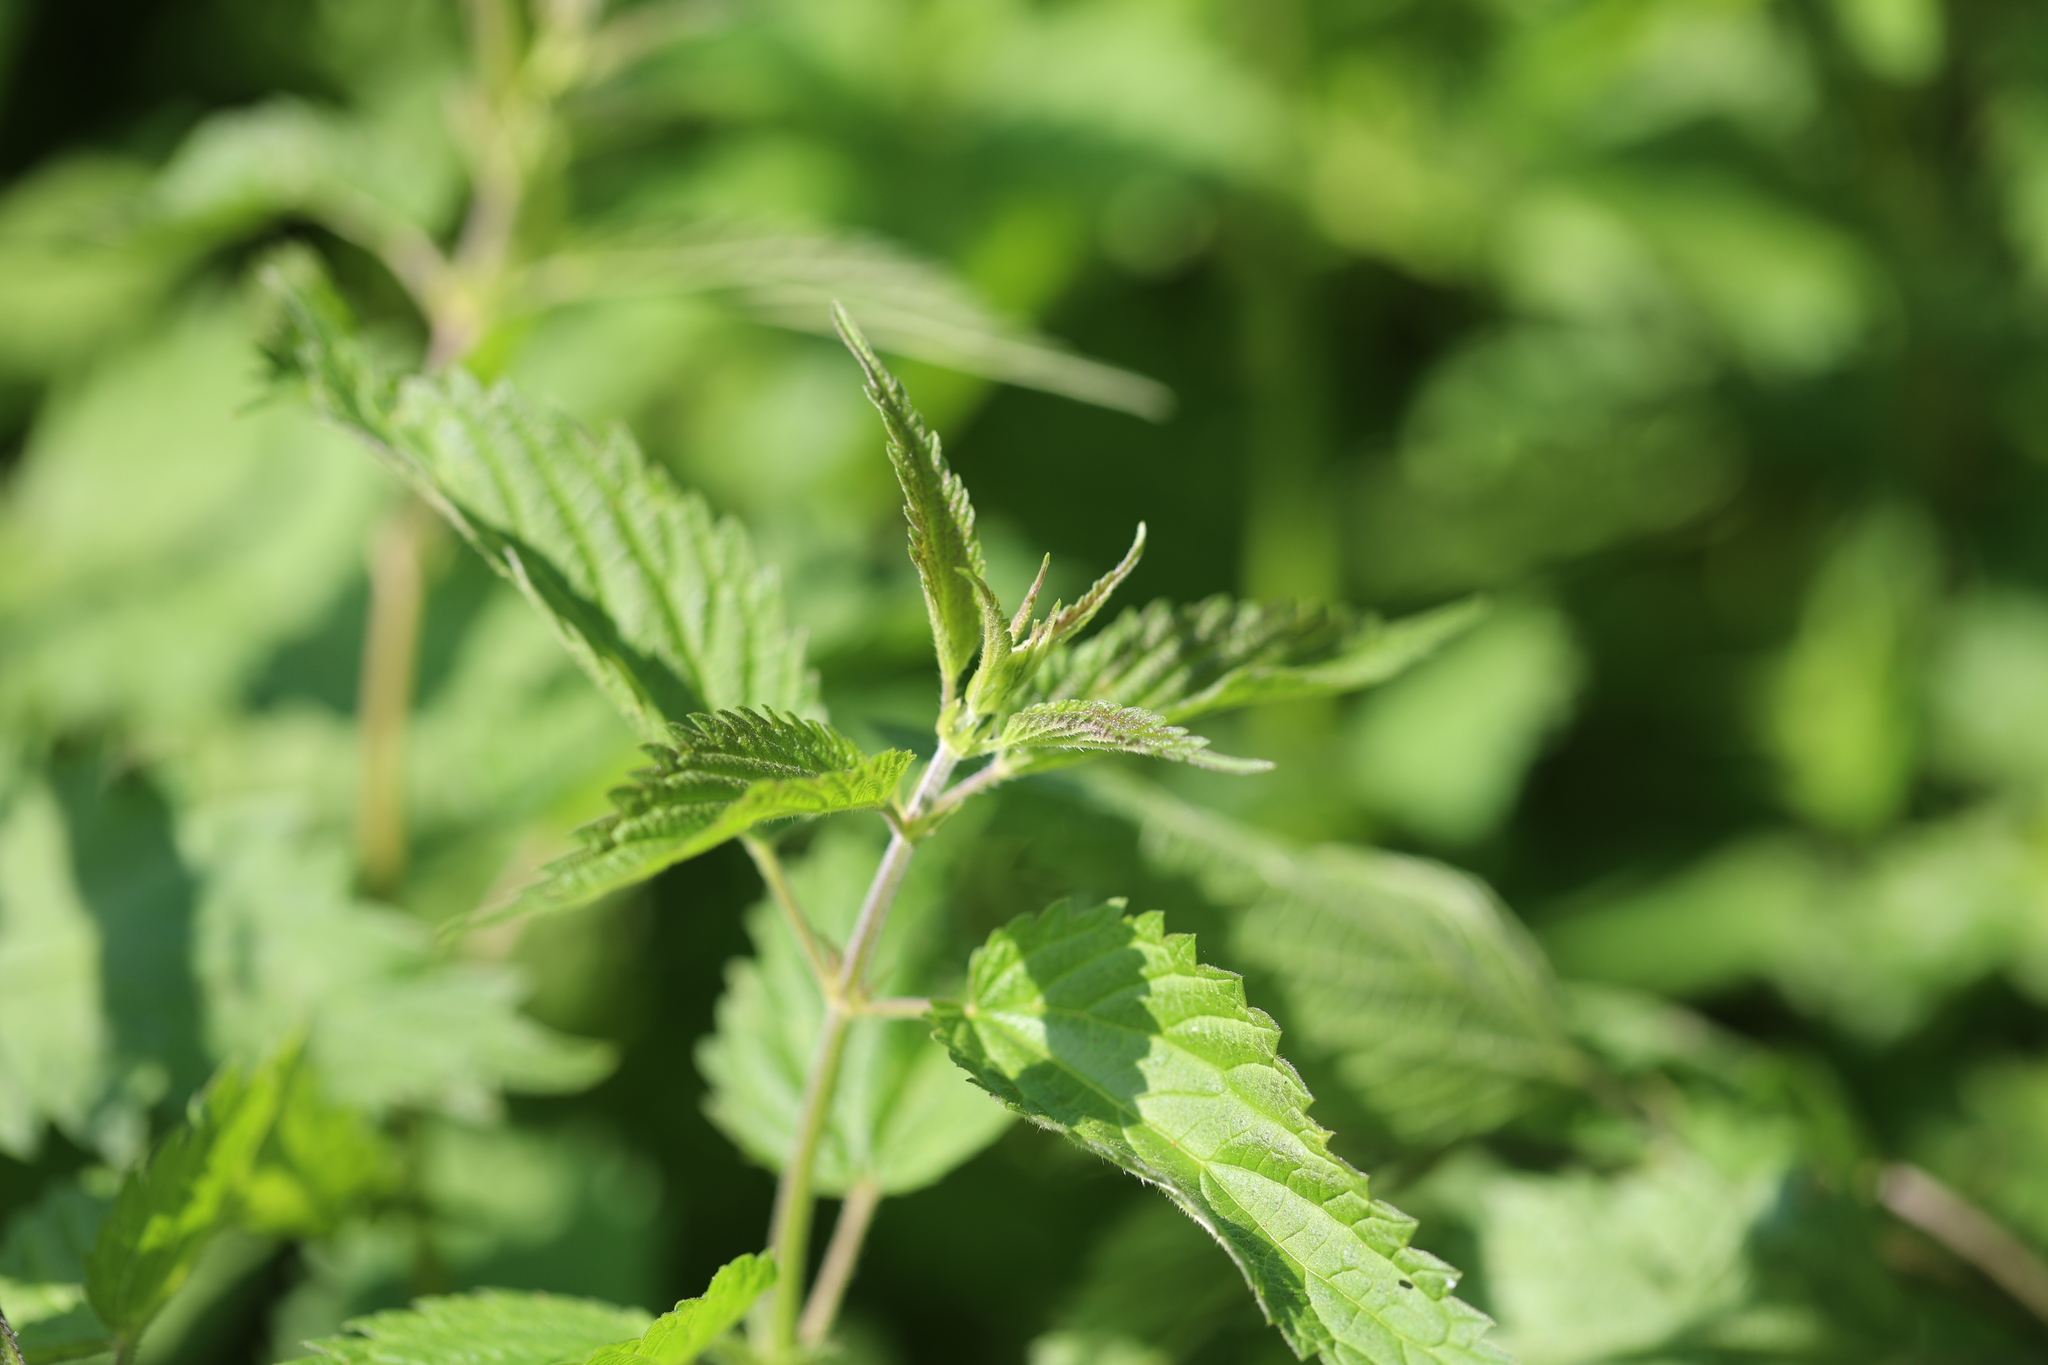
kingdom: Plantae
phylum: Tracheophyta
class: Magnoliopsida
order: Rosales
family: Urticaceae
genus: Urtica
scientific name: Urtica dioica
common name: Common nettle
